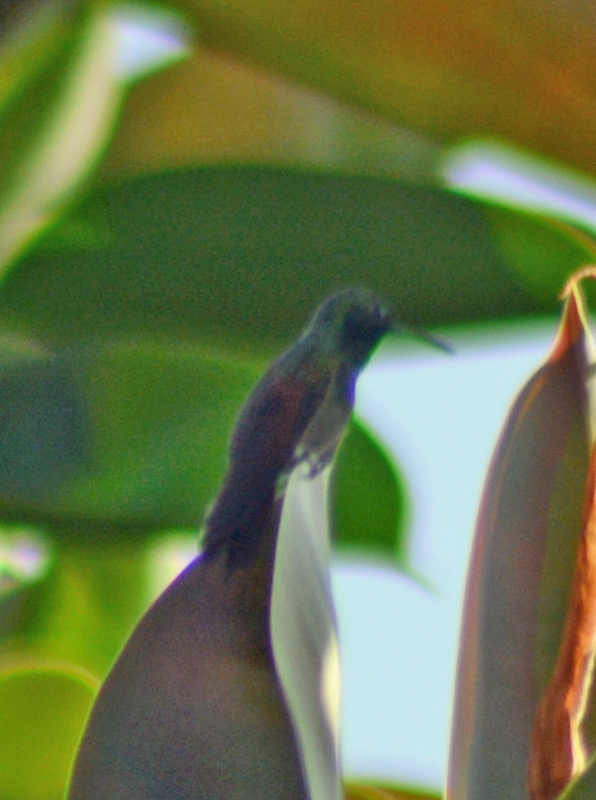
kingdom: Animalia
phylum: Chordata
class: Aves
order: Apodiformes
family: Trochilidae
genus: Saucerottia
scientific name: Saucerottia beryllina
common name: Berylline hummingbird
